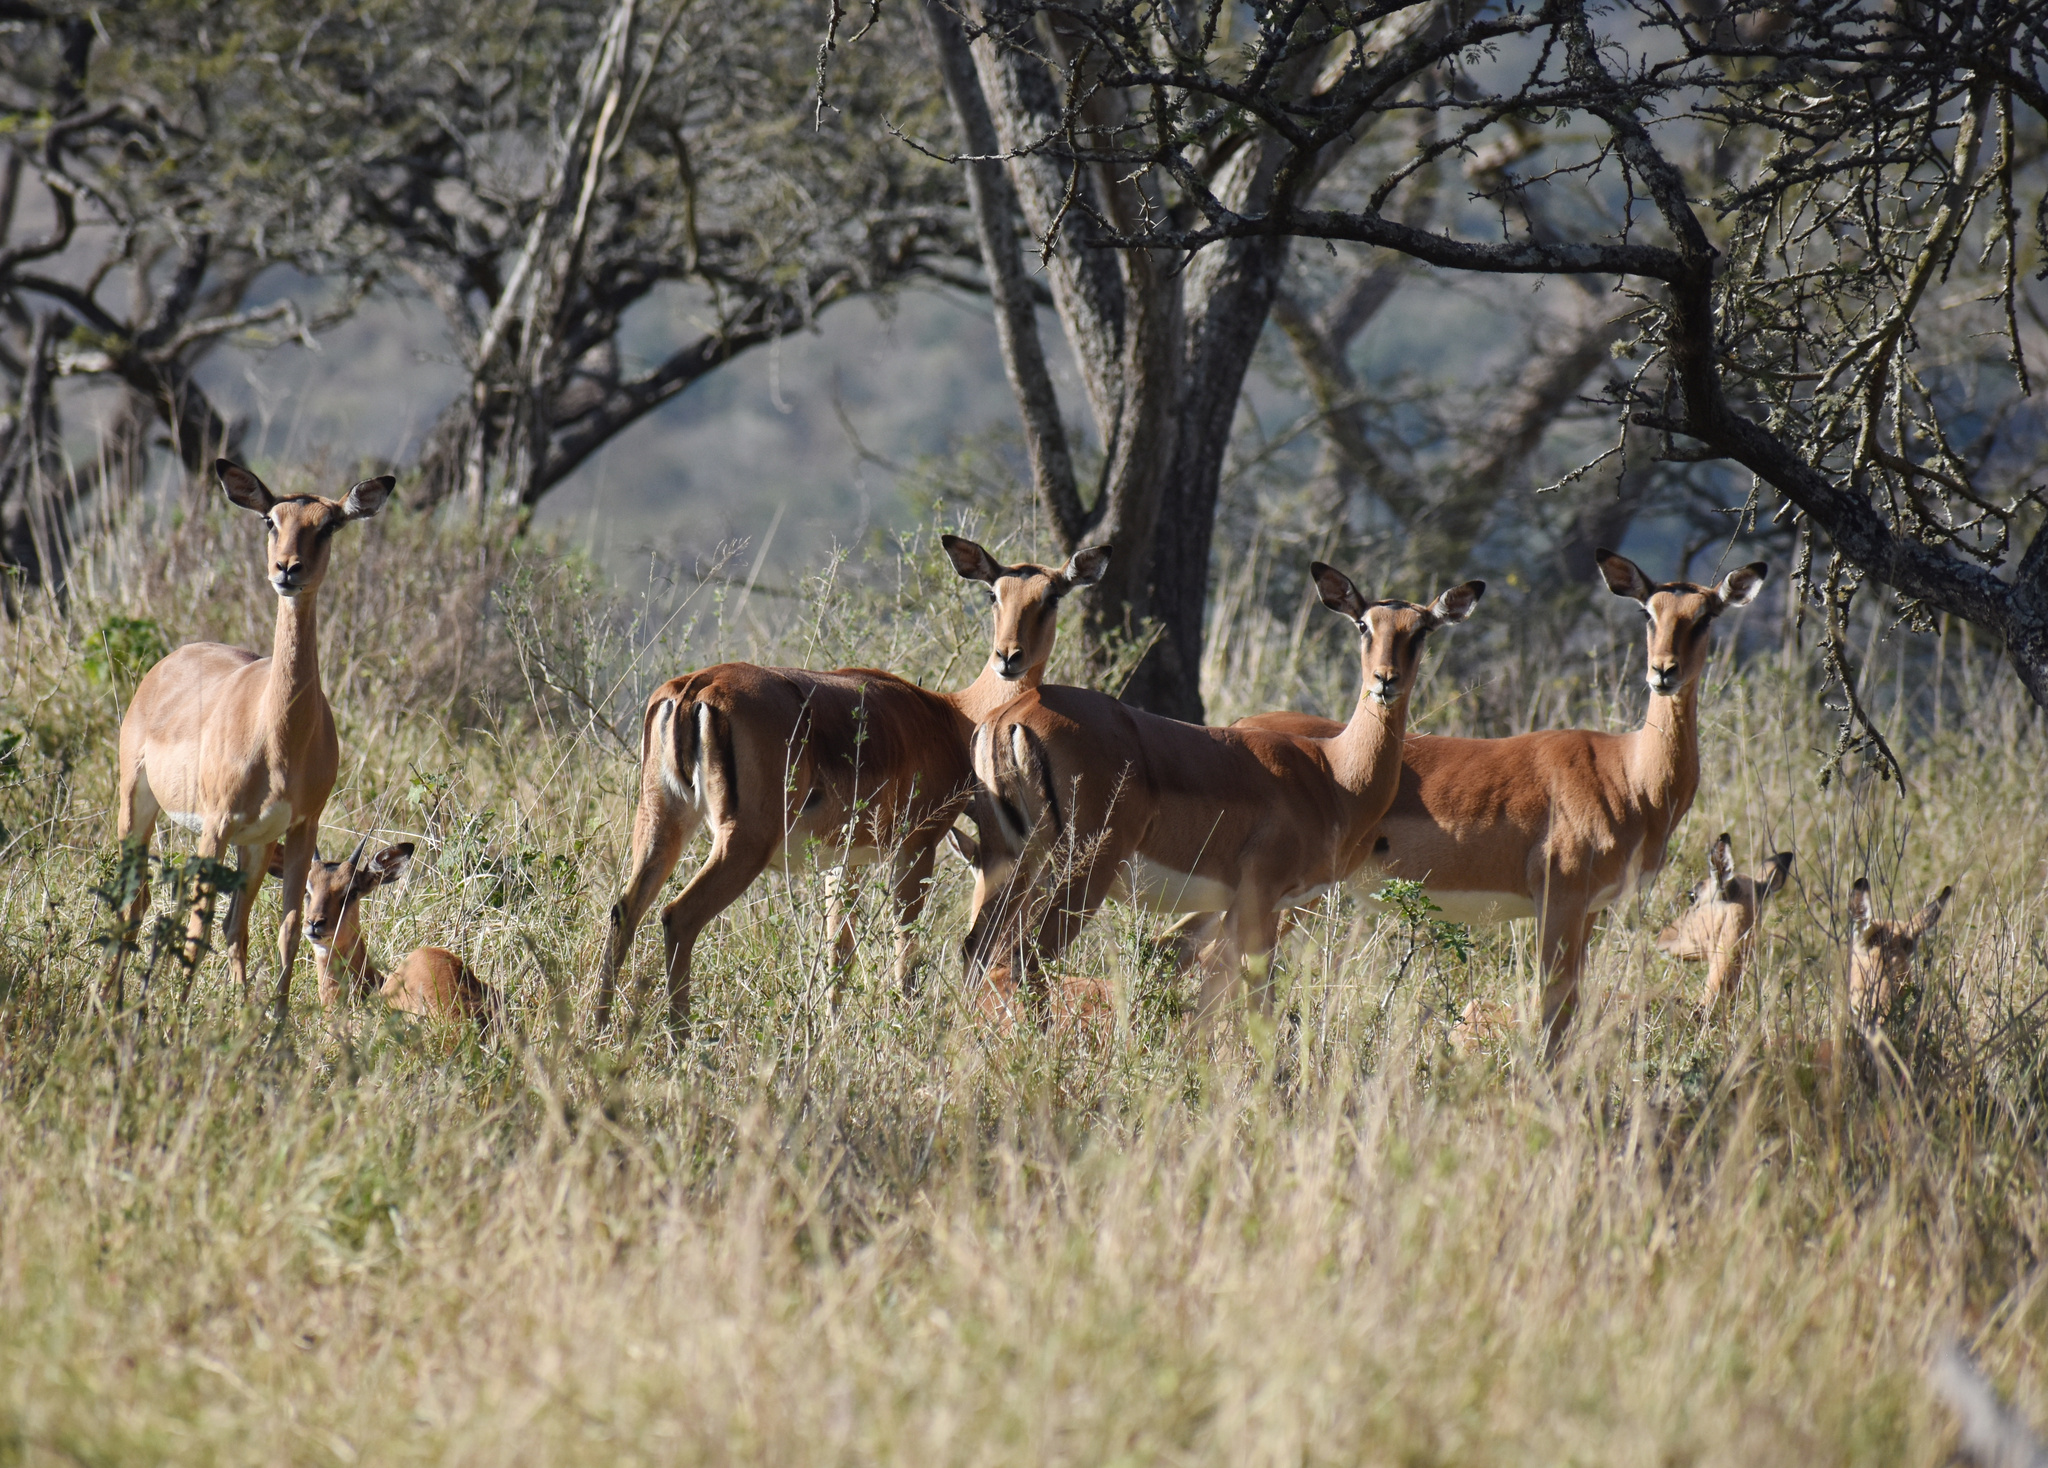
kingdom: Animalia
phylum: Chordata
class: Mammalia
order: Artiodactyla
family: Bovidae
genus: Aepyceros
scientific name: Aepyceros melampus
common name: Impala
